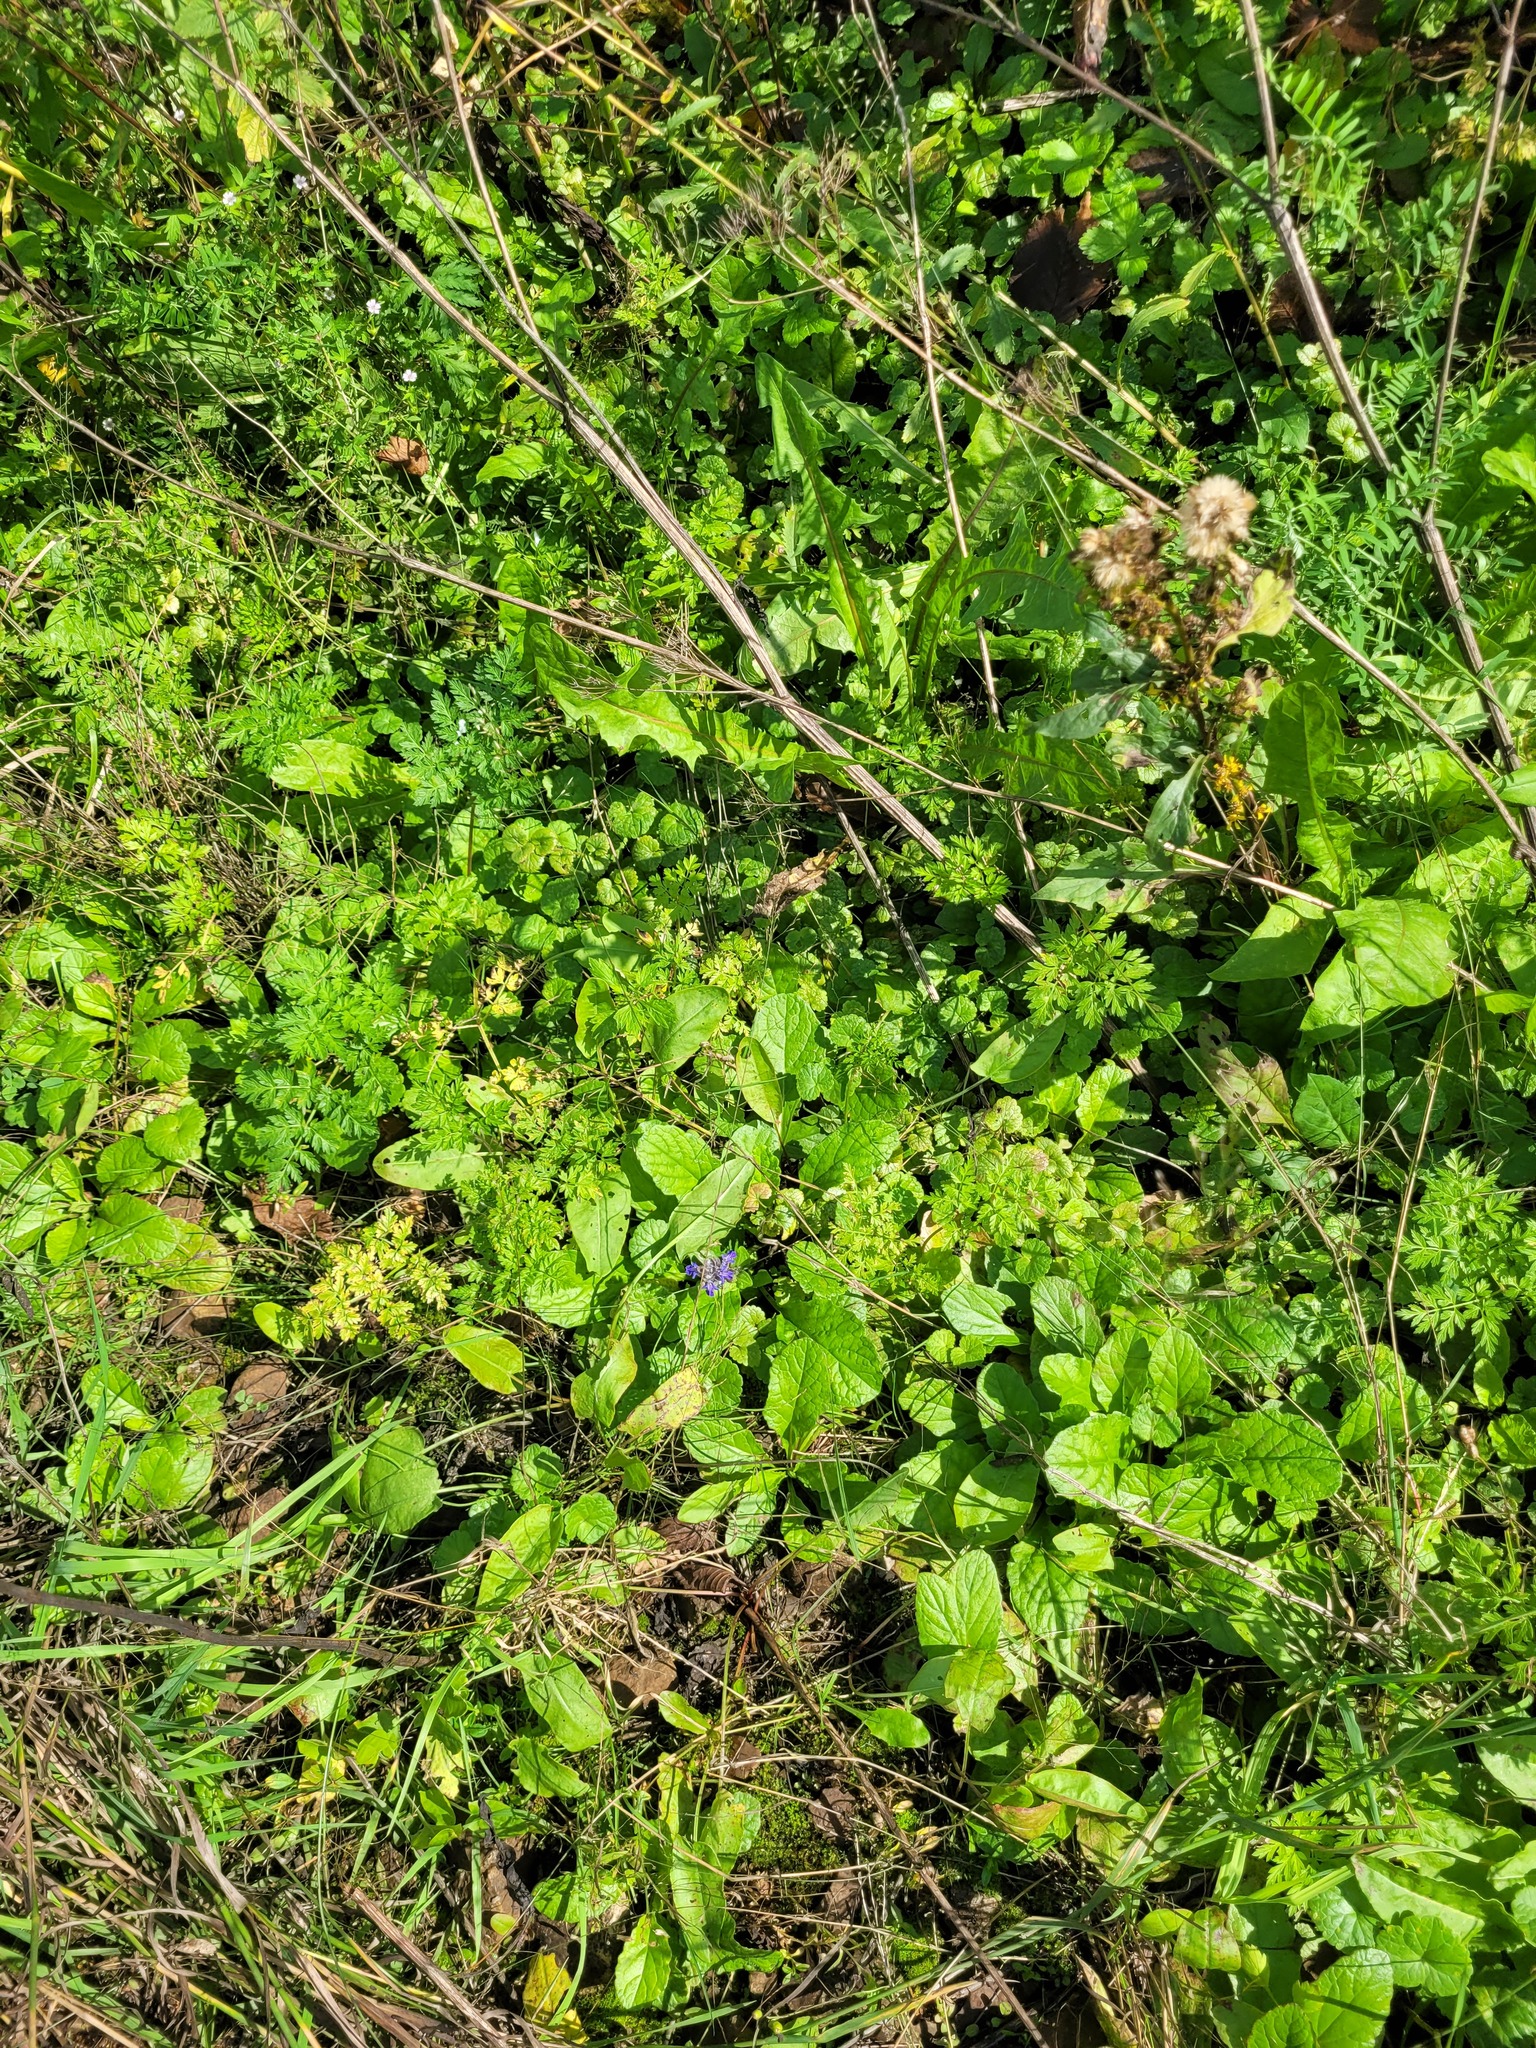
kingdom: Plantae
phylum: Tracheophyta
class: Magnoliopsida
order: Apiales
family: Apiaceae
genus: Anthriscus
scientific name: Anthriscus sylvestris
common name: Cow parsley
